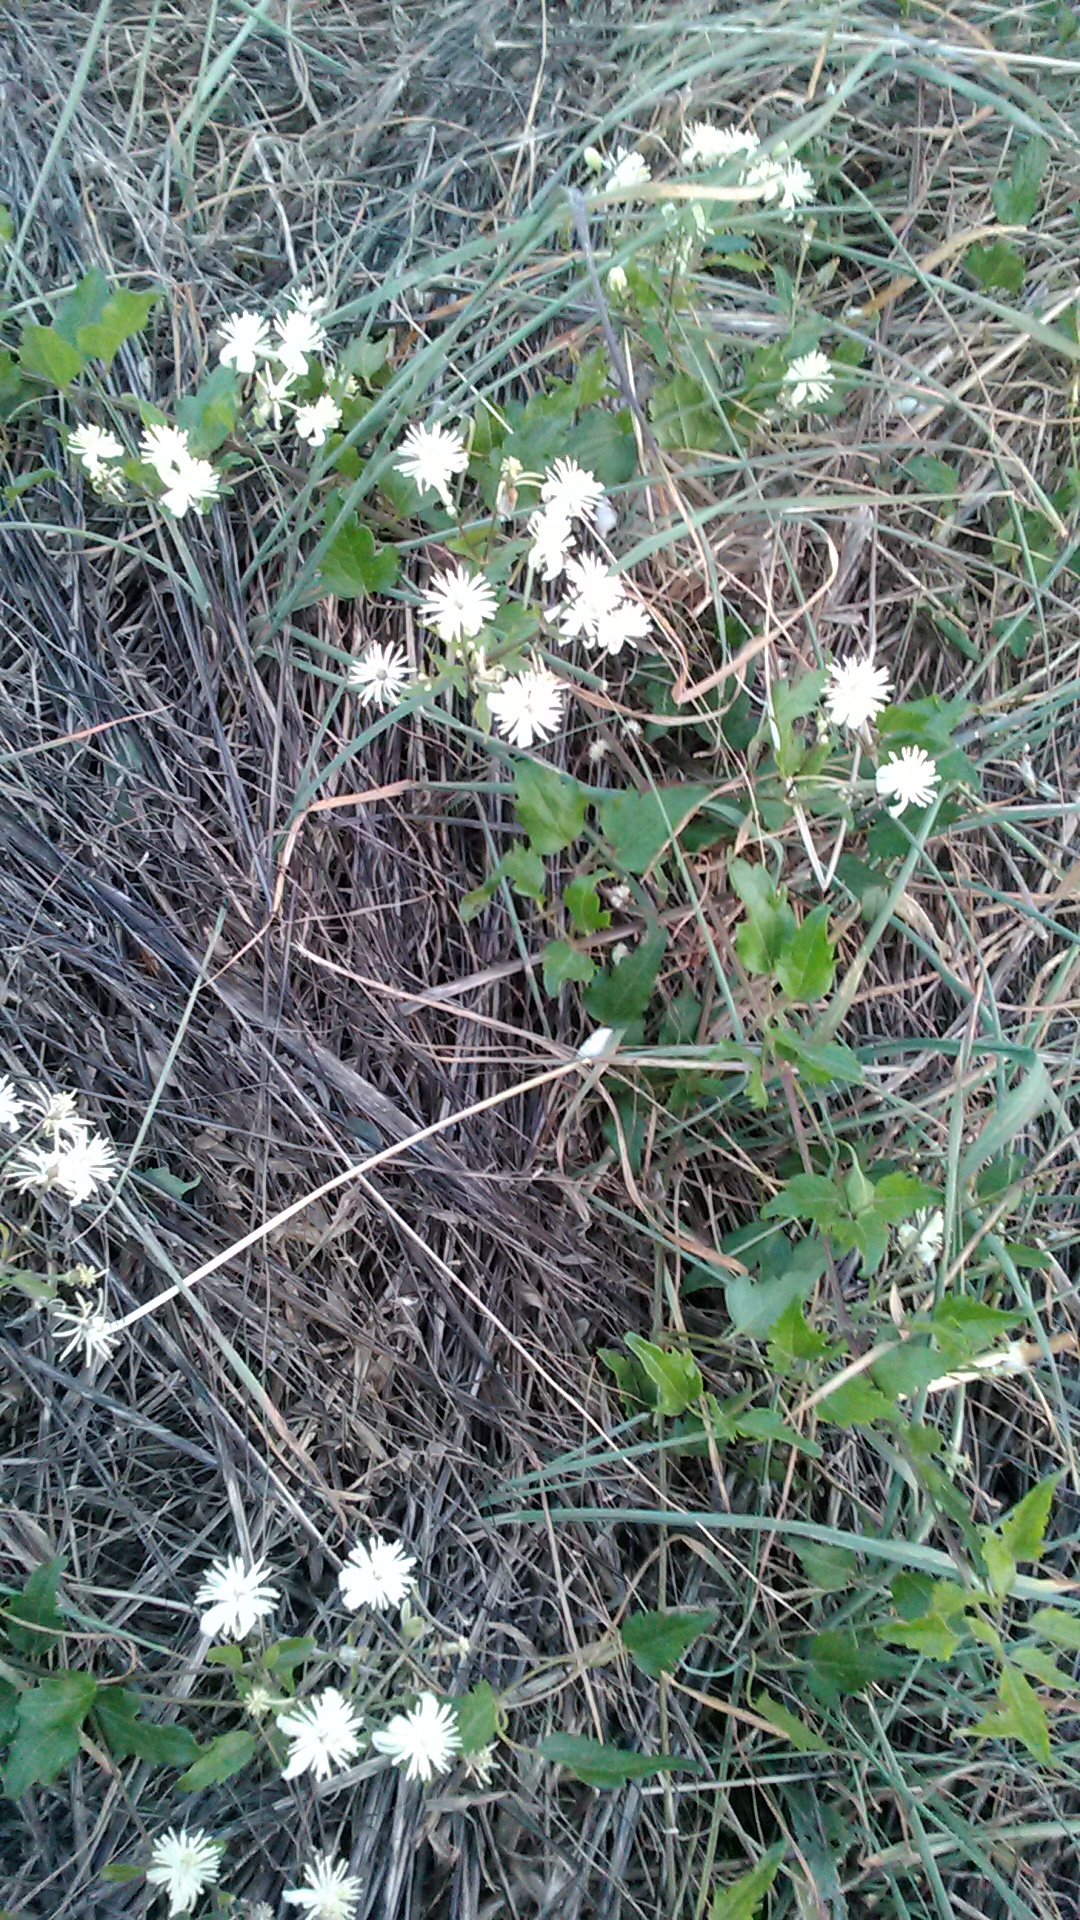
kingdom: Plantae
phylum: Tracheophyta
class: Magnoliopsida
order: Ranunculales
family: Ranunculaceae
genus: Clematis
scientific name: Clematis vitalba
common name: Evergreen clematis
